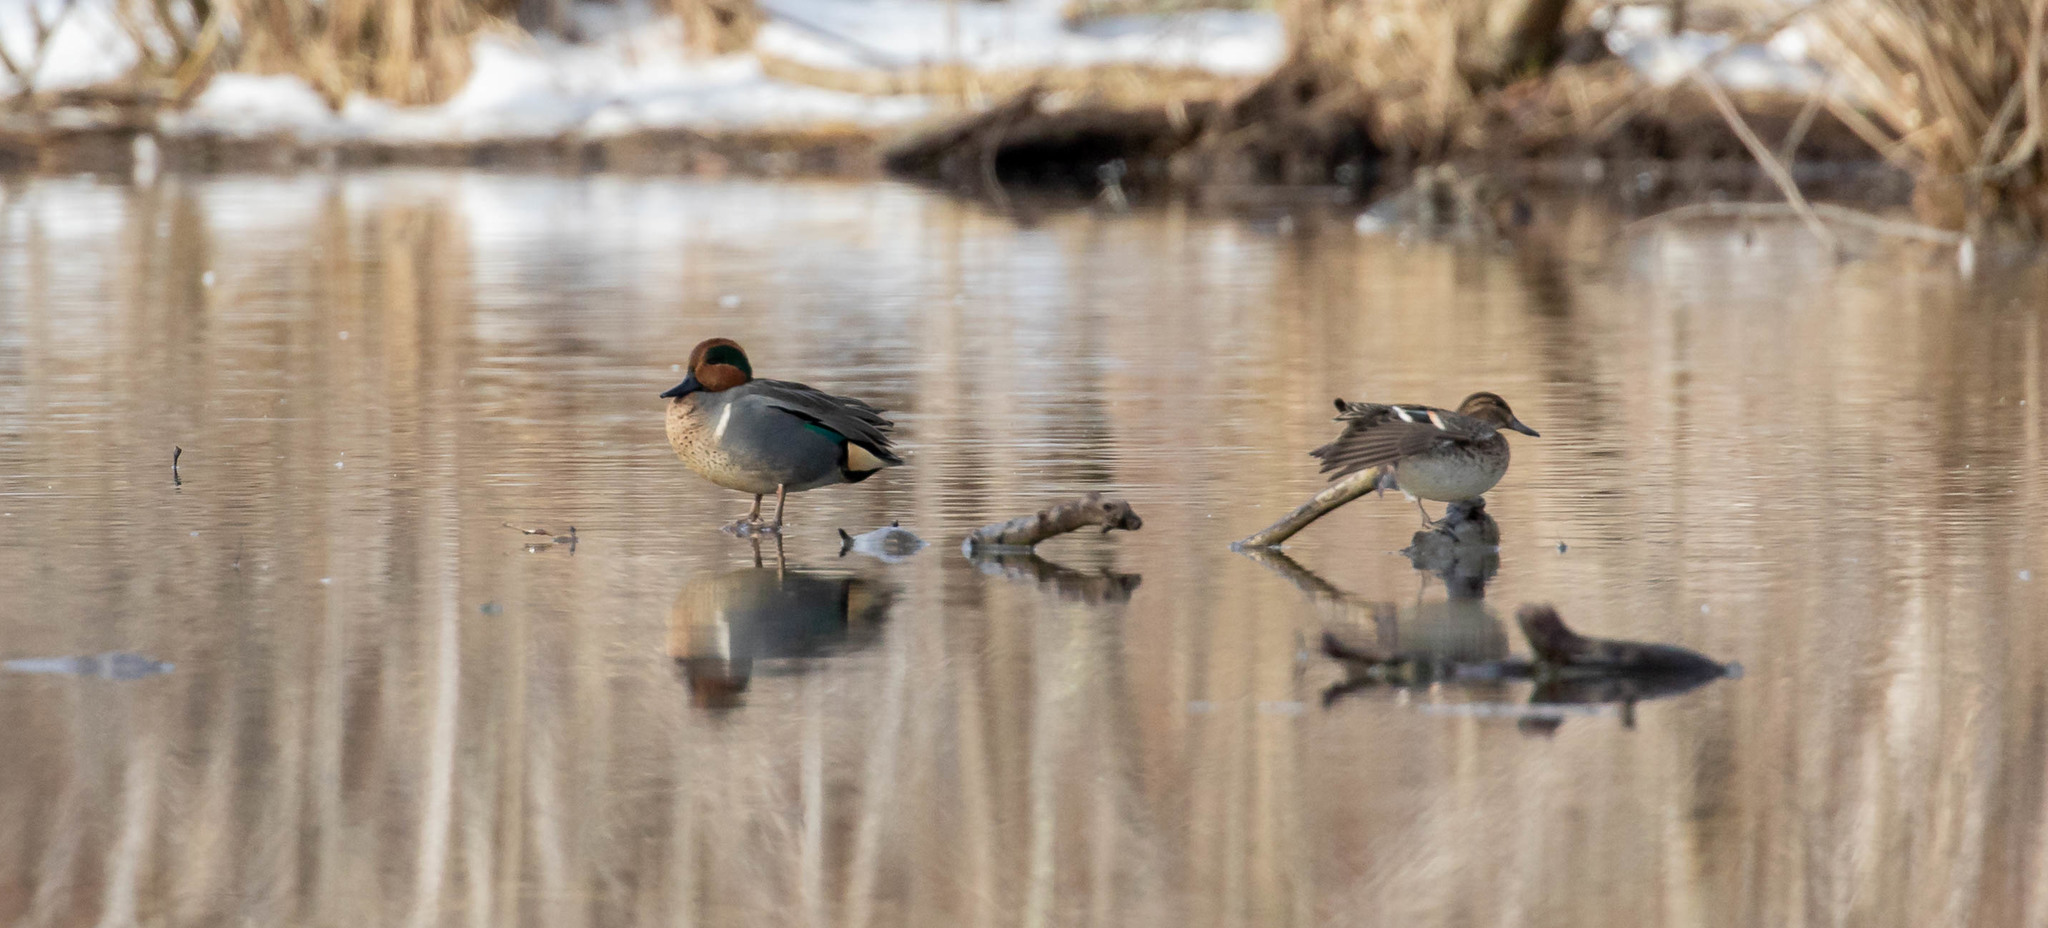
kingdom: Animalia
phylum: Chordata
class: Aves
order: Anseriformes
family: Anatidae
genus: Anas
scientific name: Anas crecca
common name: Eurasian teal
